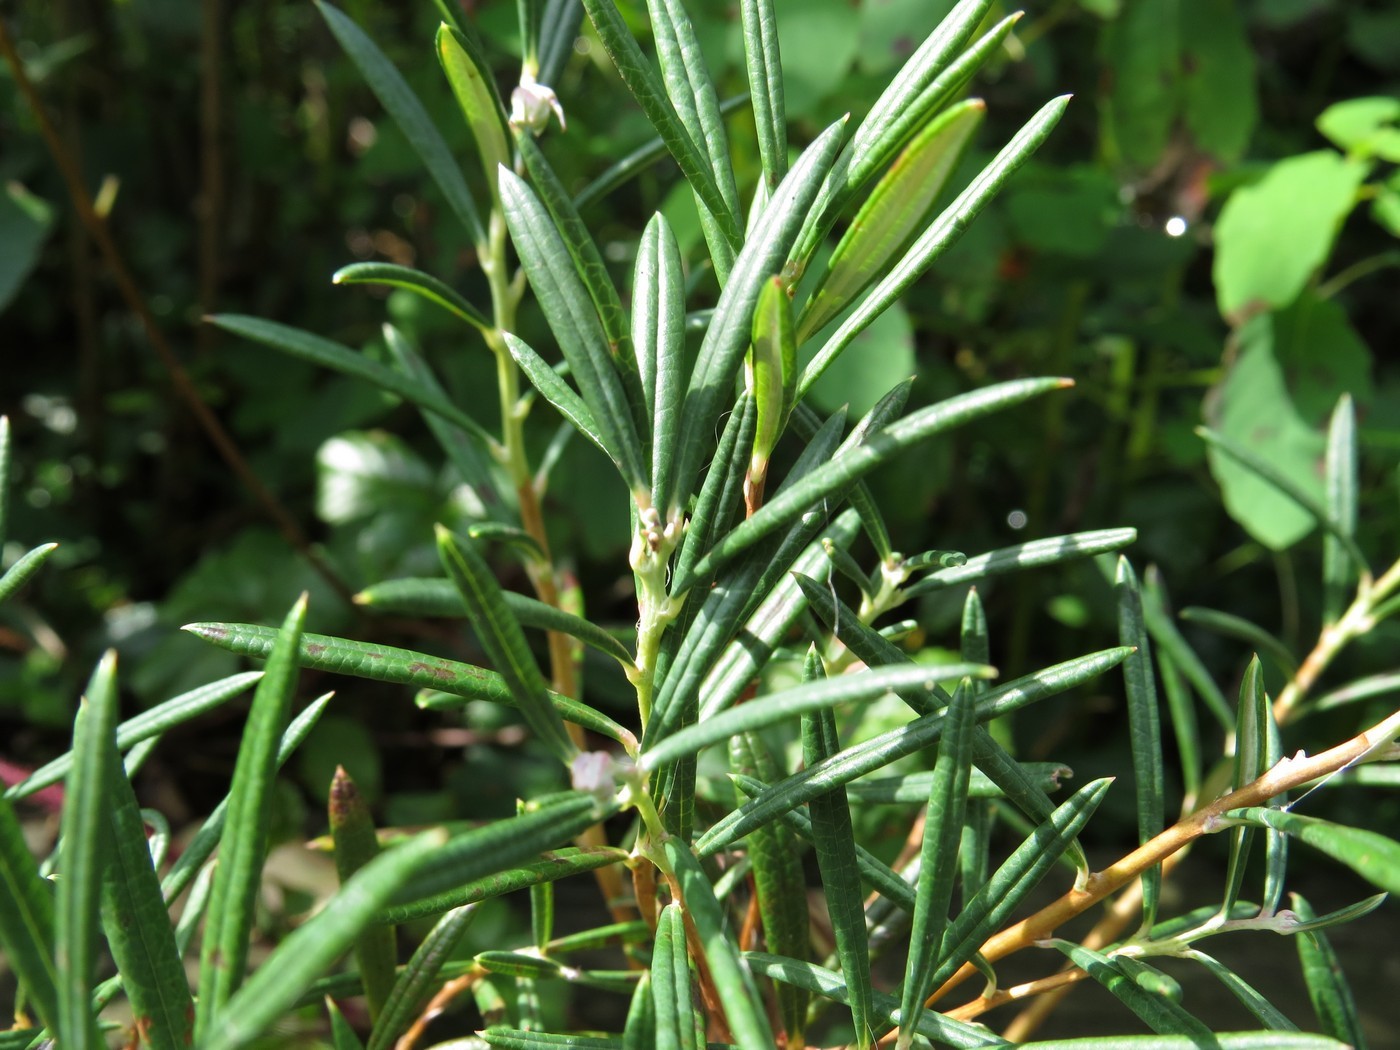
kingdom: Plantae
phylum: Tracheophyta
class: Magnoliopsida
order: Ericales
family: Ericaceae
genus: Andromeda
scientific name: Andromeda polifolia
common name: Bog-rosemary
